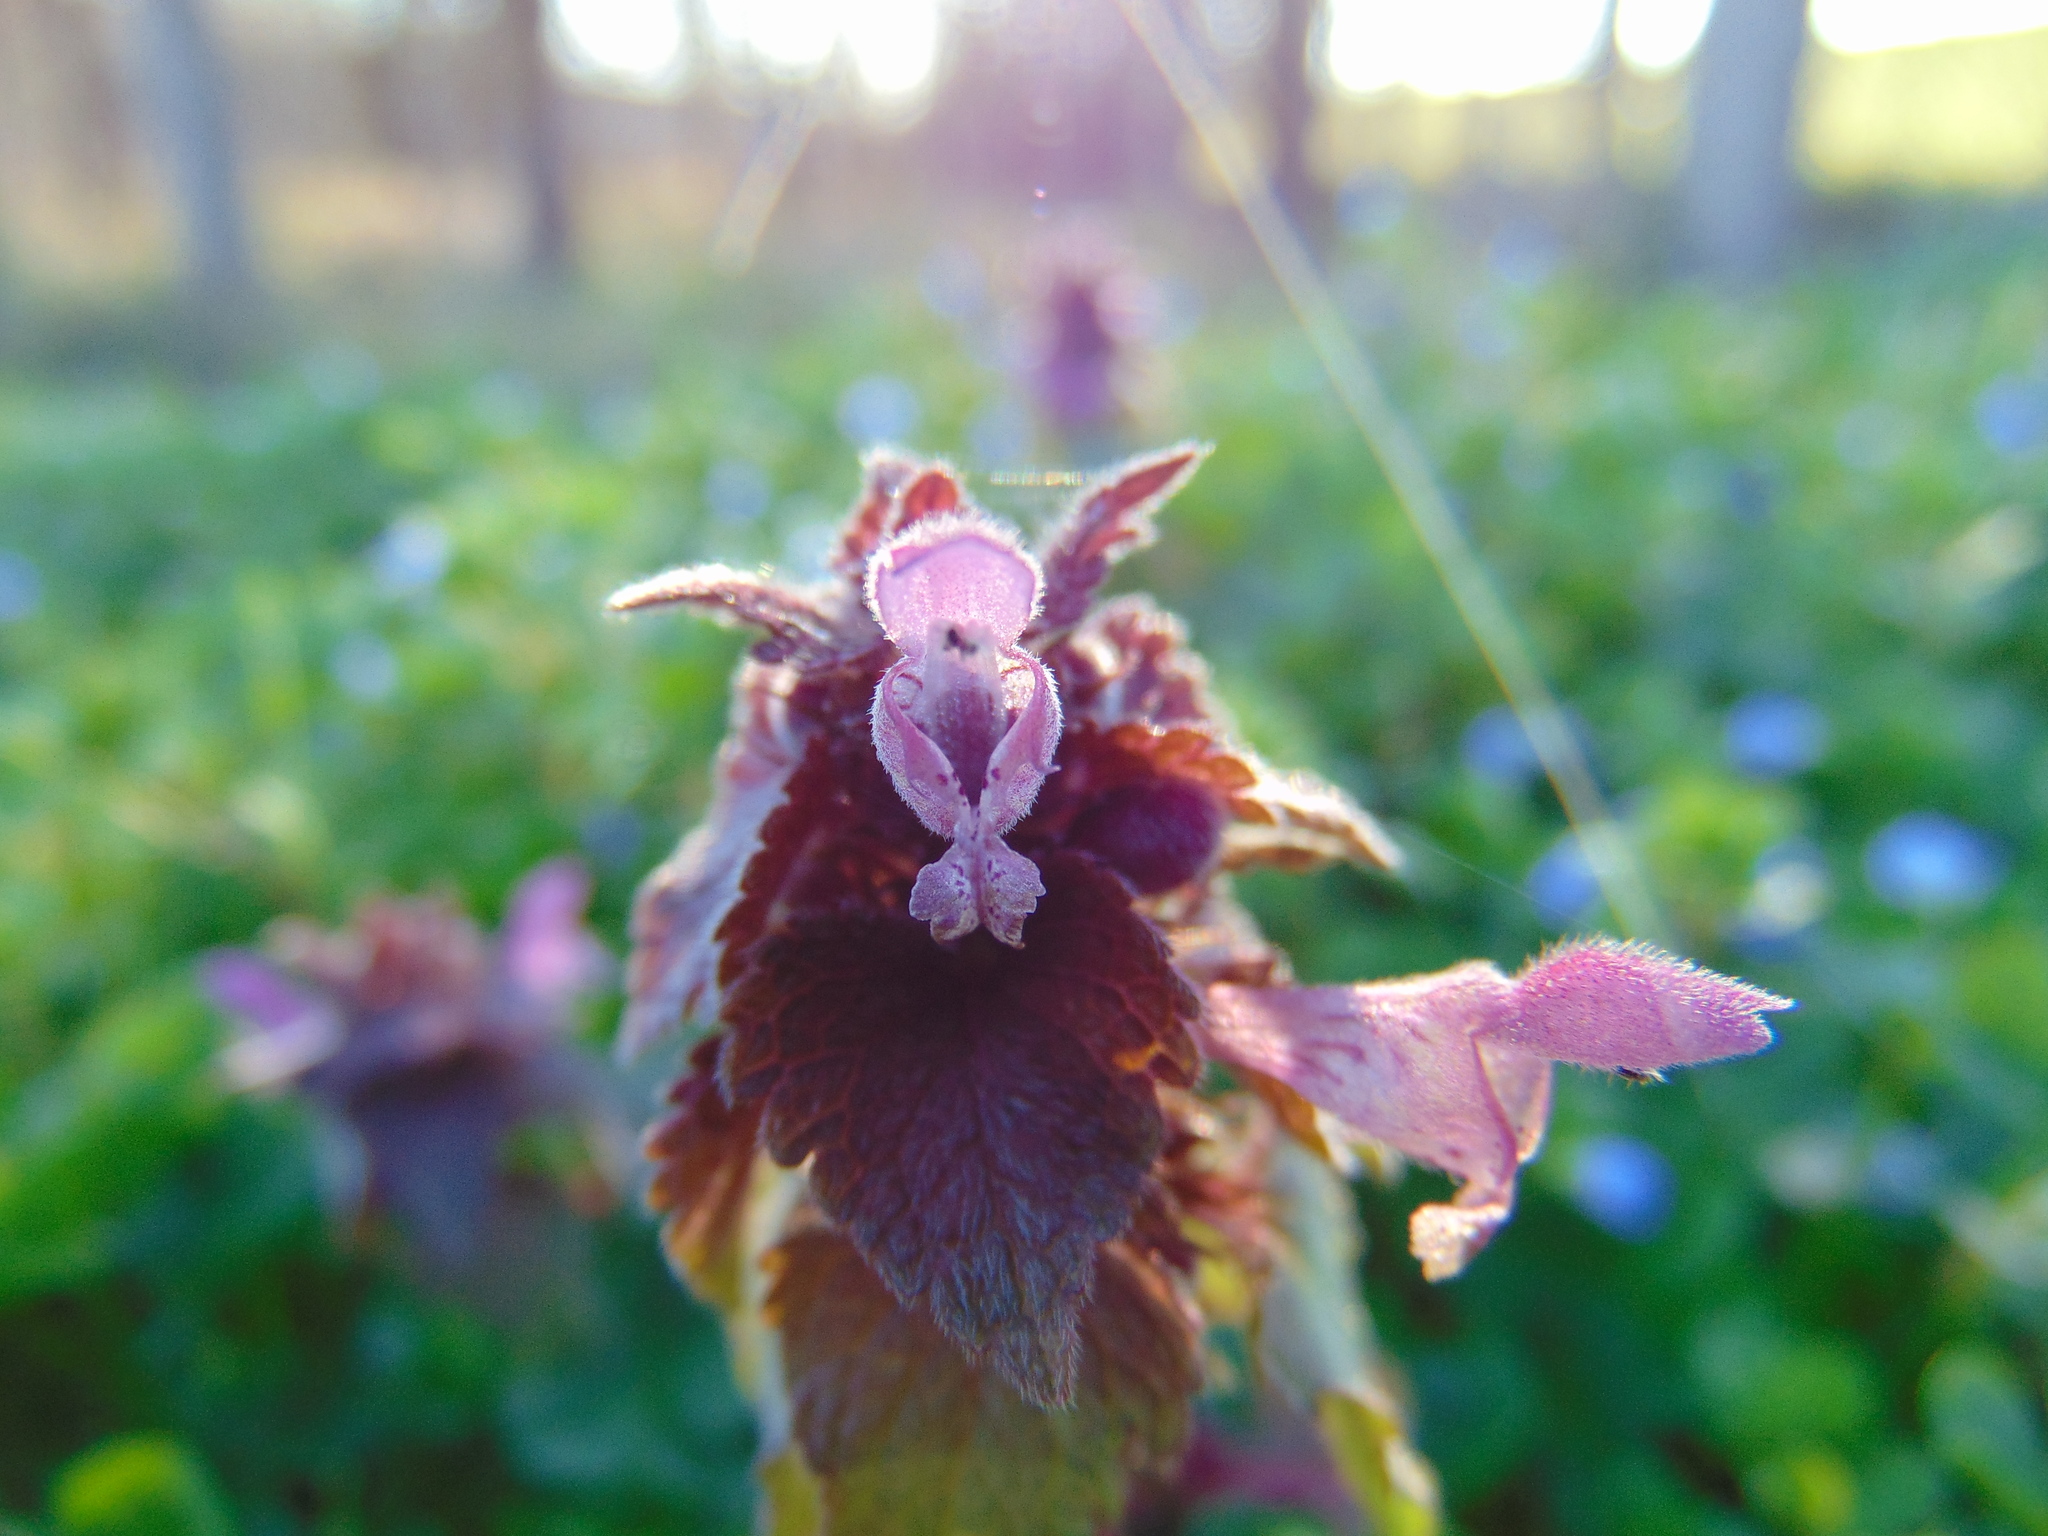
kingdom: Plantae
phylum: Tracheophyta
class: Magnoliopsida
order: Lamiales
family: Lamiaceae
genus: Lamium
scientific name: Lamium purpureum
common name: Red dead-nettle
